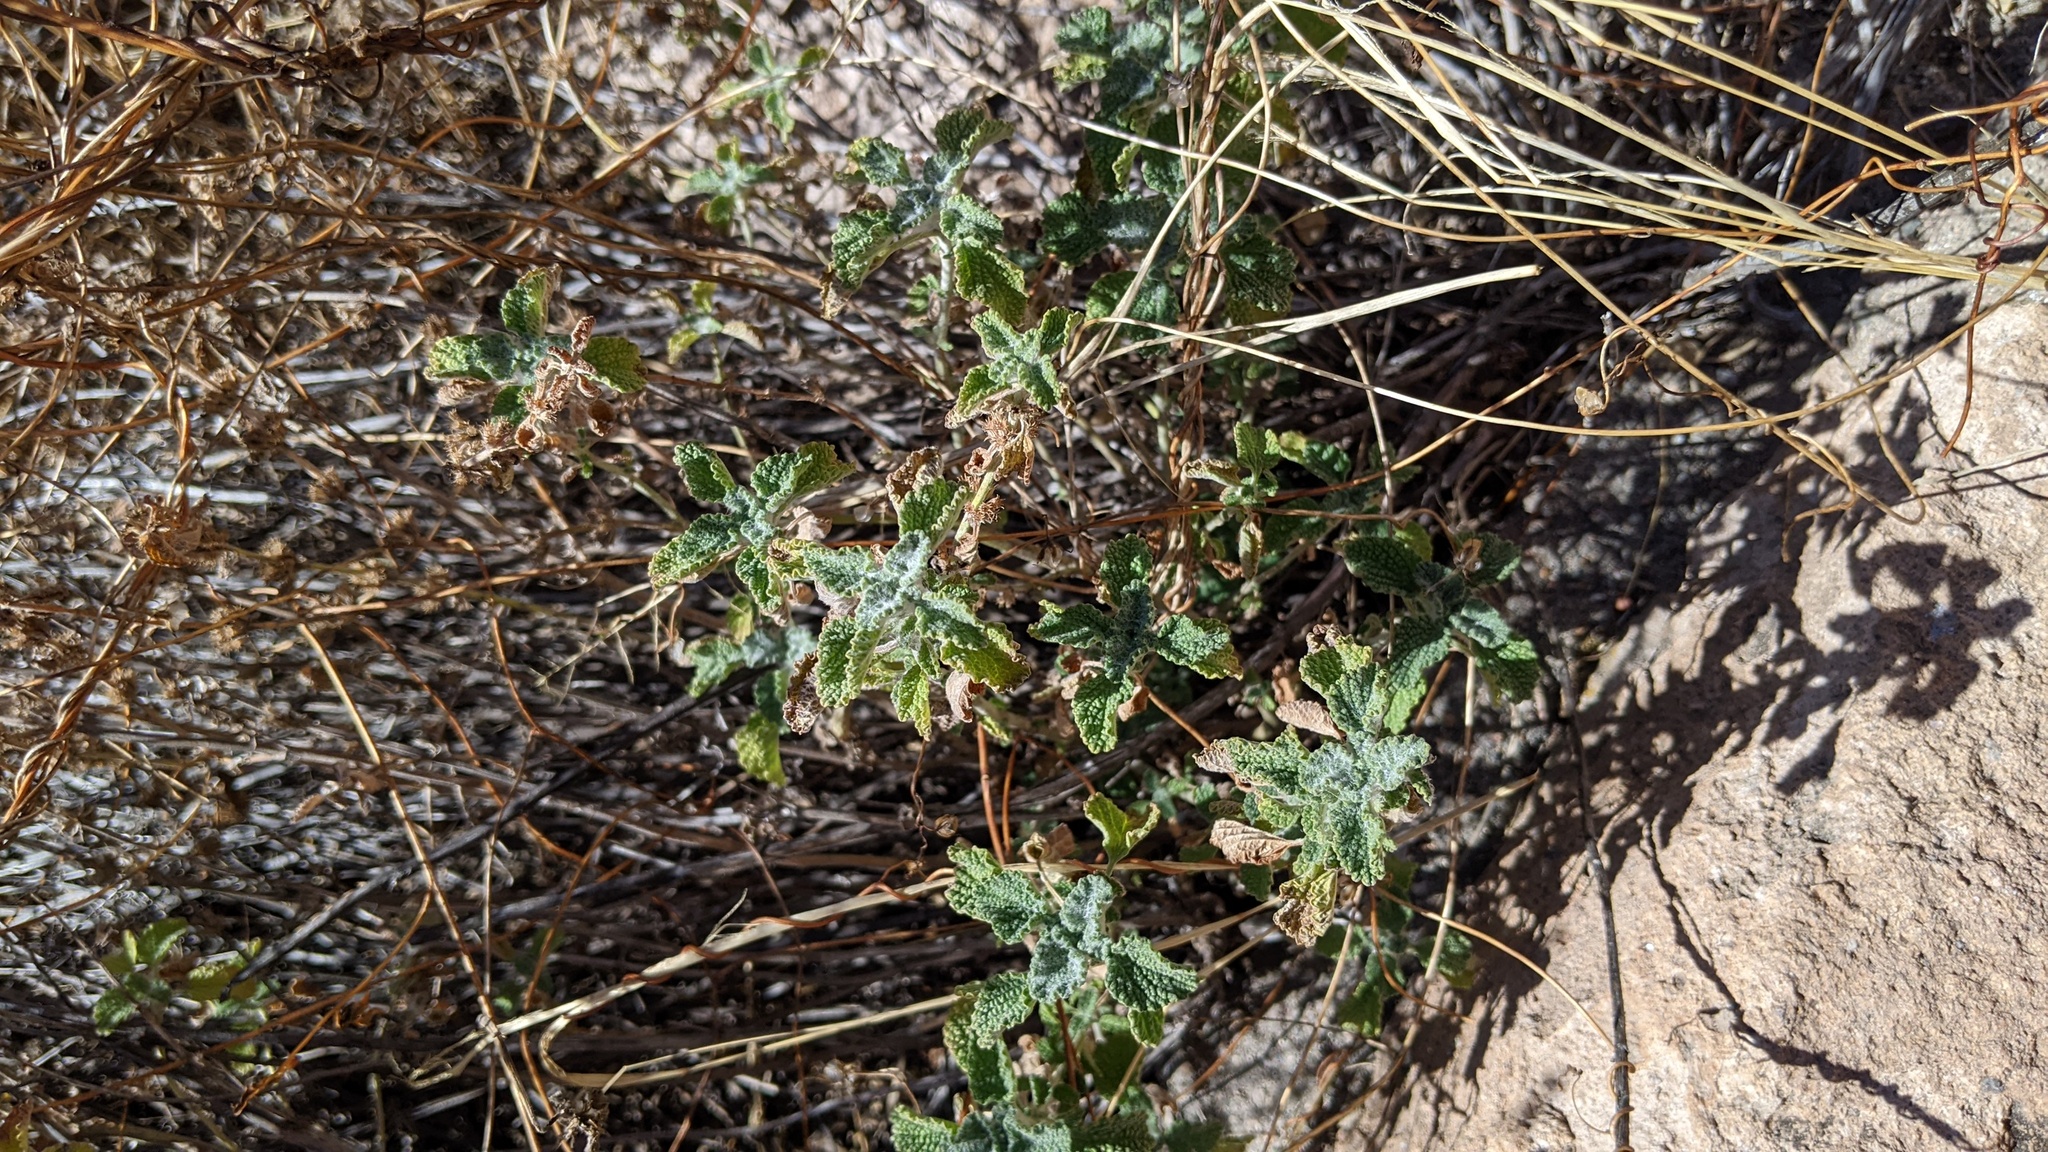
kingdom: Plantae
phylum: Tracheophyta
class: Magnoliopsida
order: Lamiales
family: Lamiaceae
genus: Marrubium
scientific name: Marrubium vulgare
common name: Horehound
